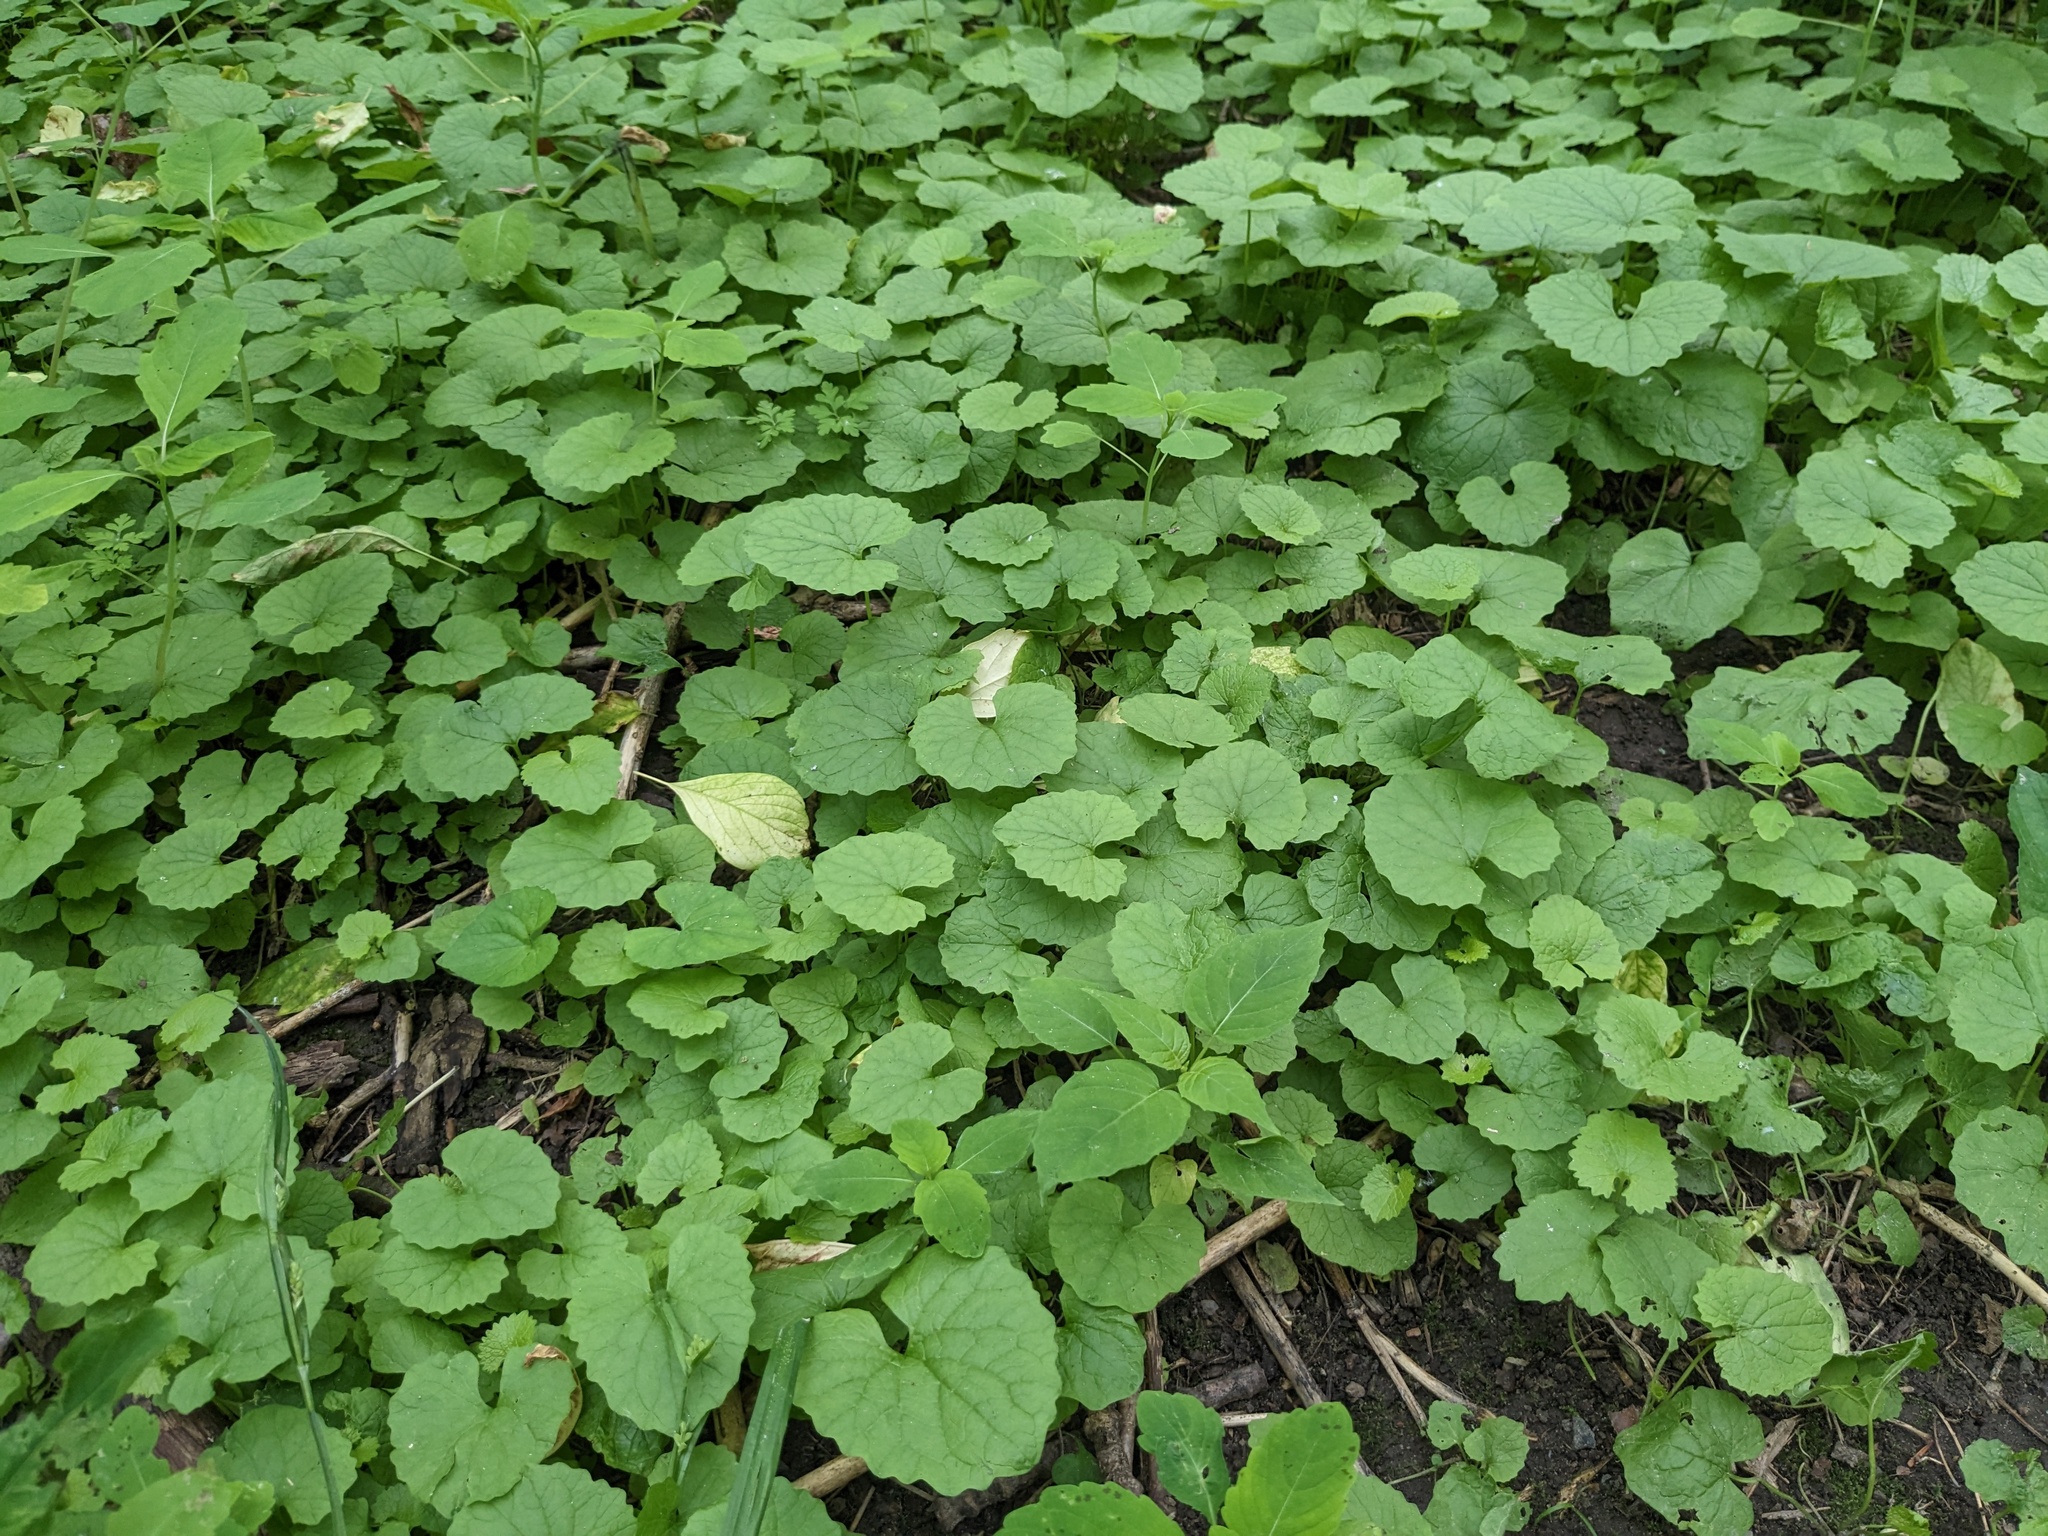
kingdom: Plantae
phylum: Tracheophyta
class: Magnoliopsida
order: Brassicales
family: Brassicaceae
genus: Alliaria
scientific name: Alliaria petiolata
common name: Garlic mustard
